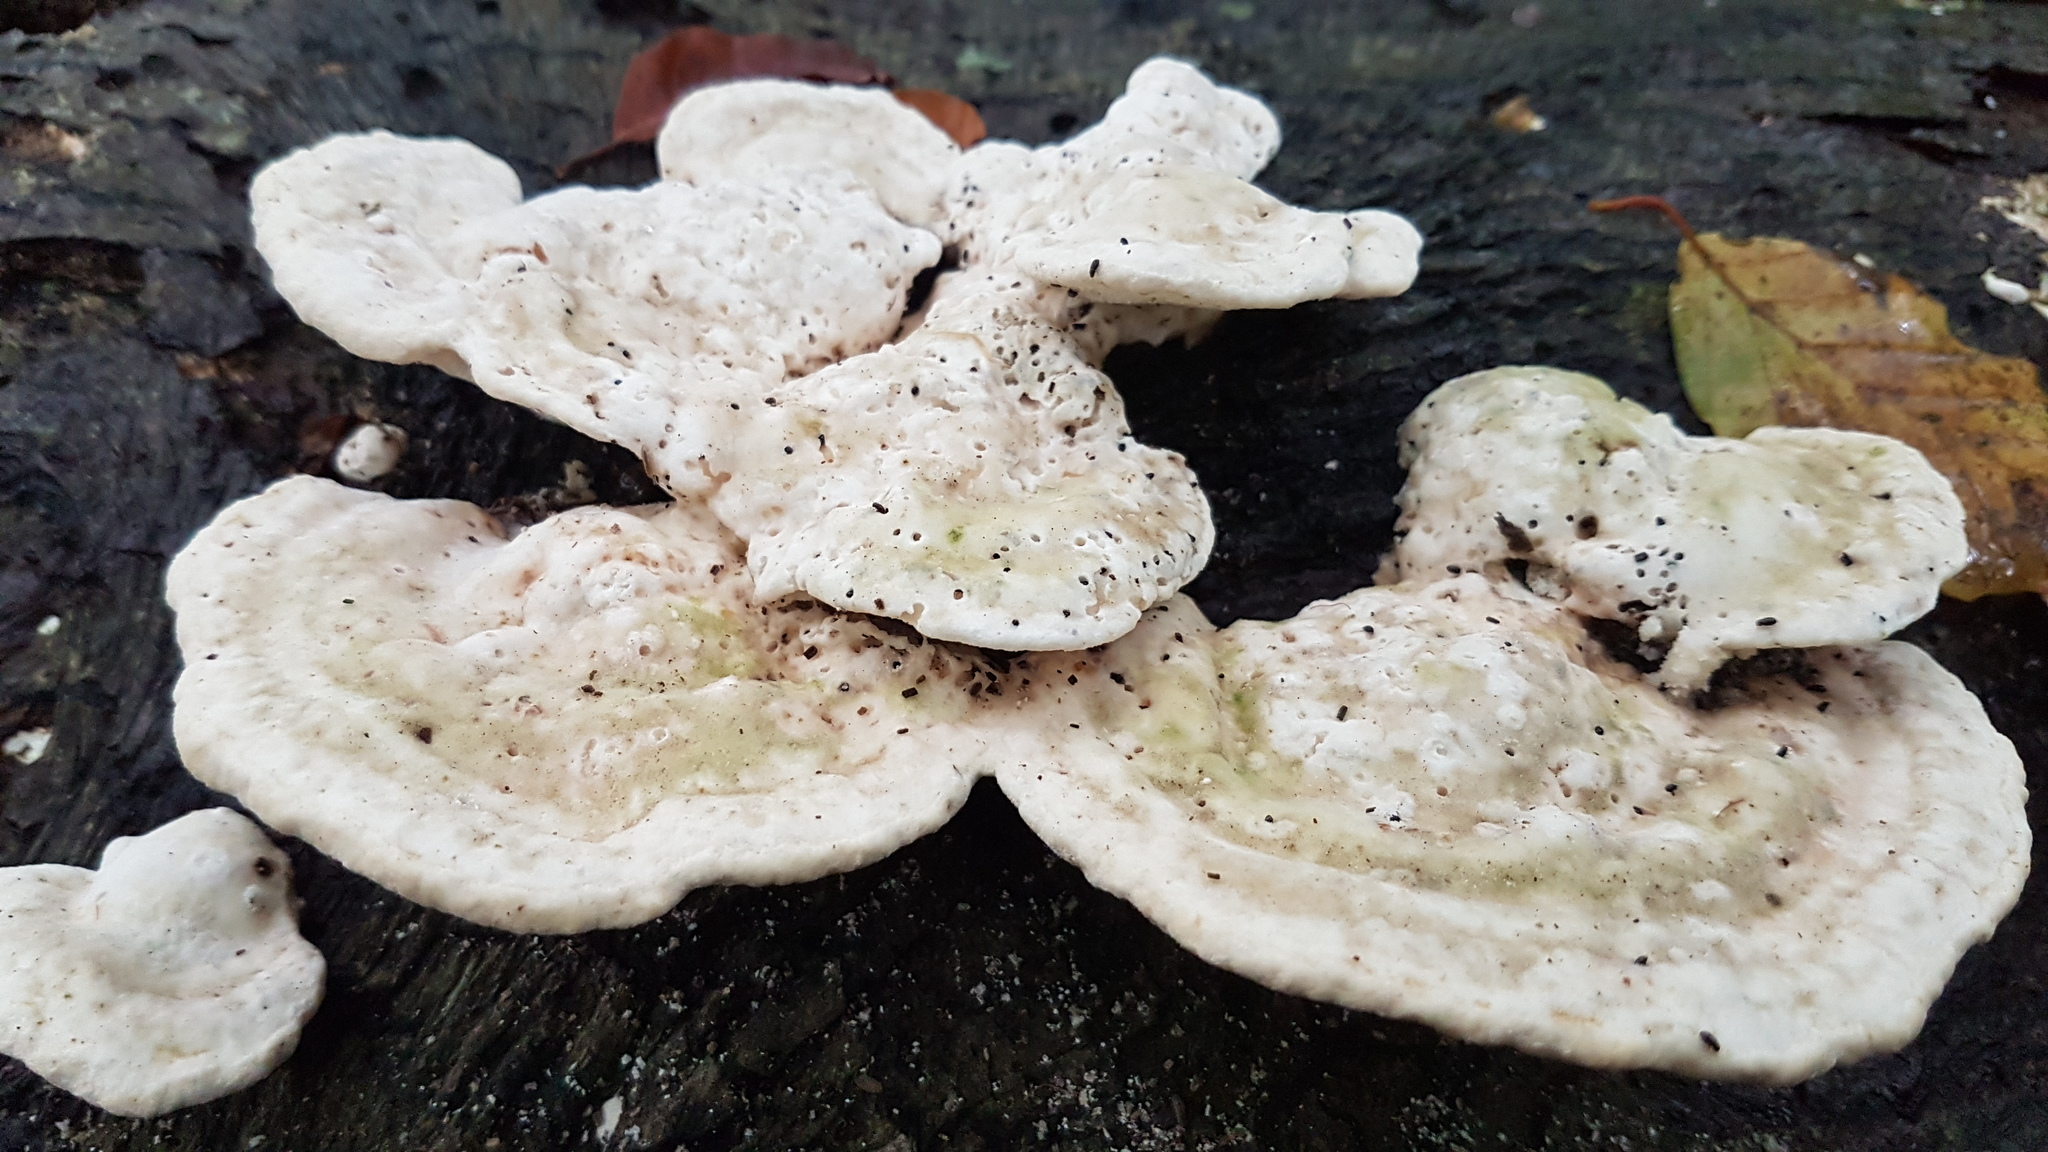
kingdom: Fungi
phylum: Basidiomycota
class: Agaricomycetes
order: Polyporales
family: Polyporaceae
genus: Trametes
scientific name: Trametes gibbosa
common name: Lumpy bracket
